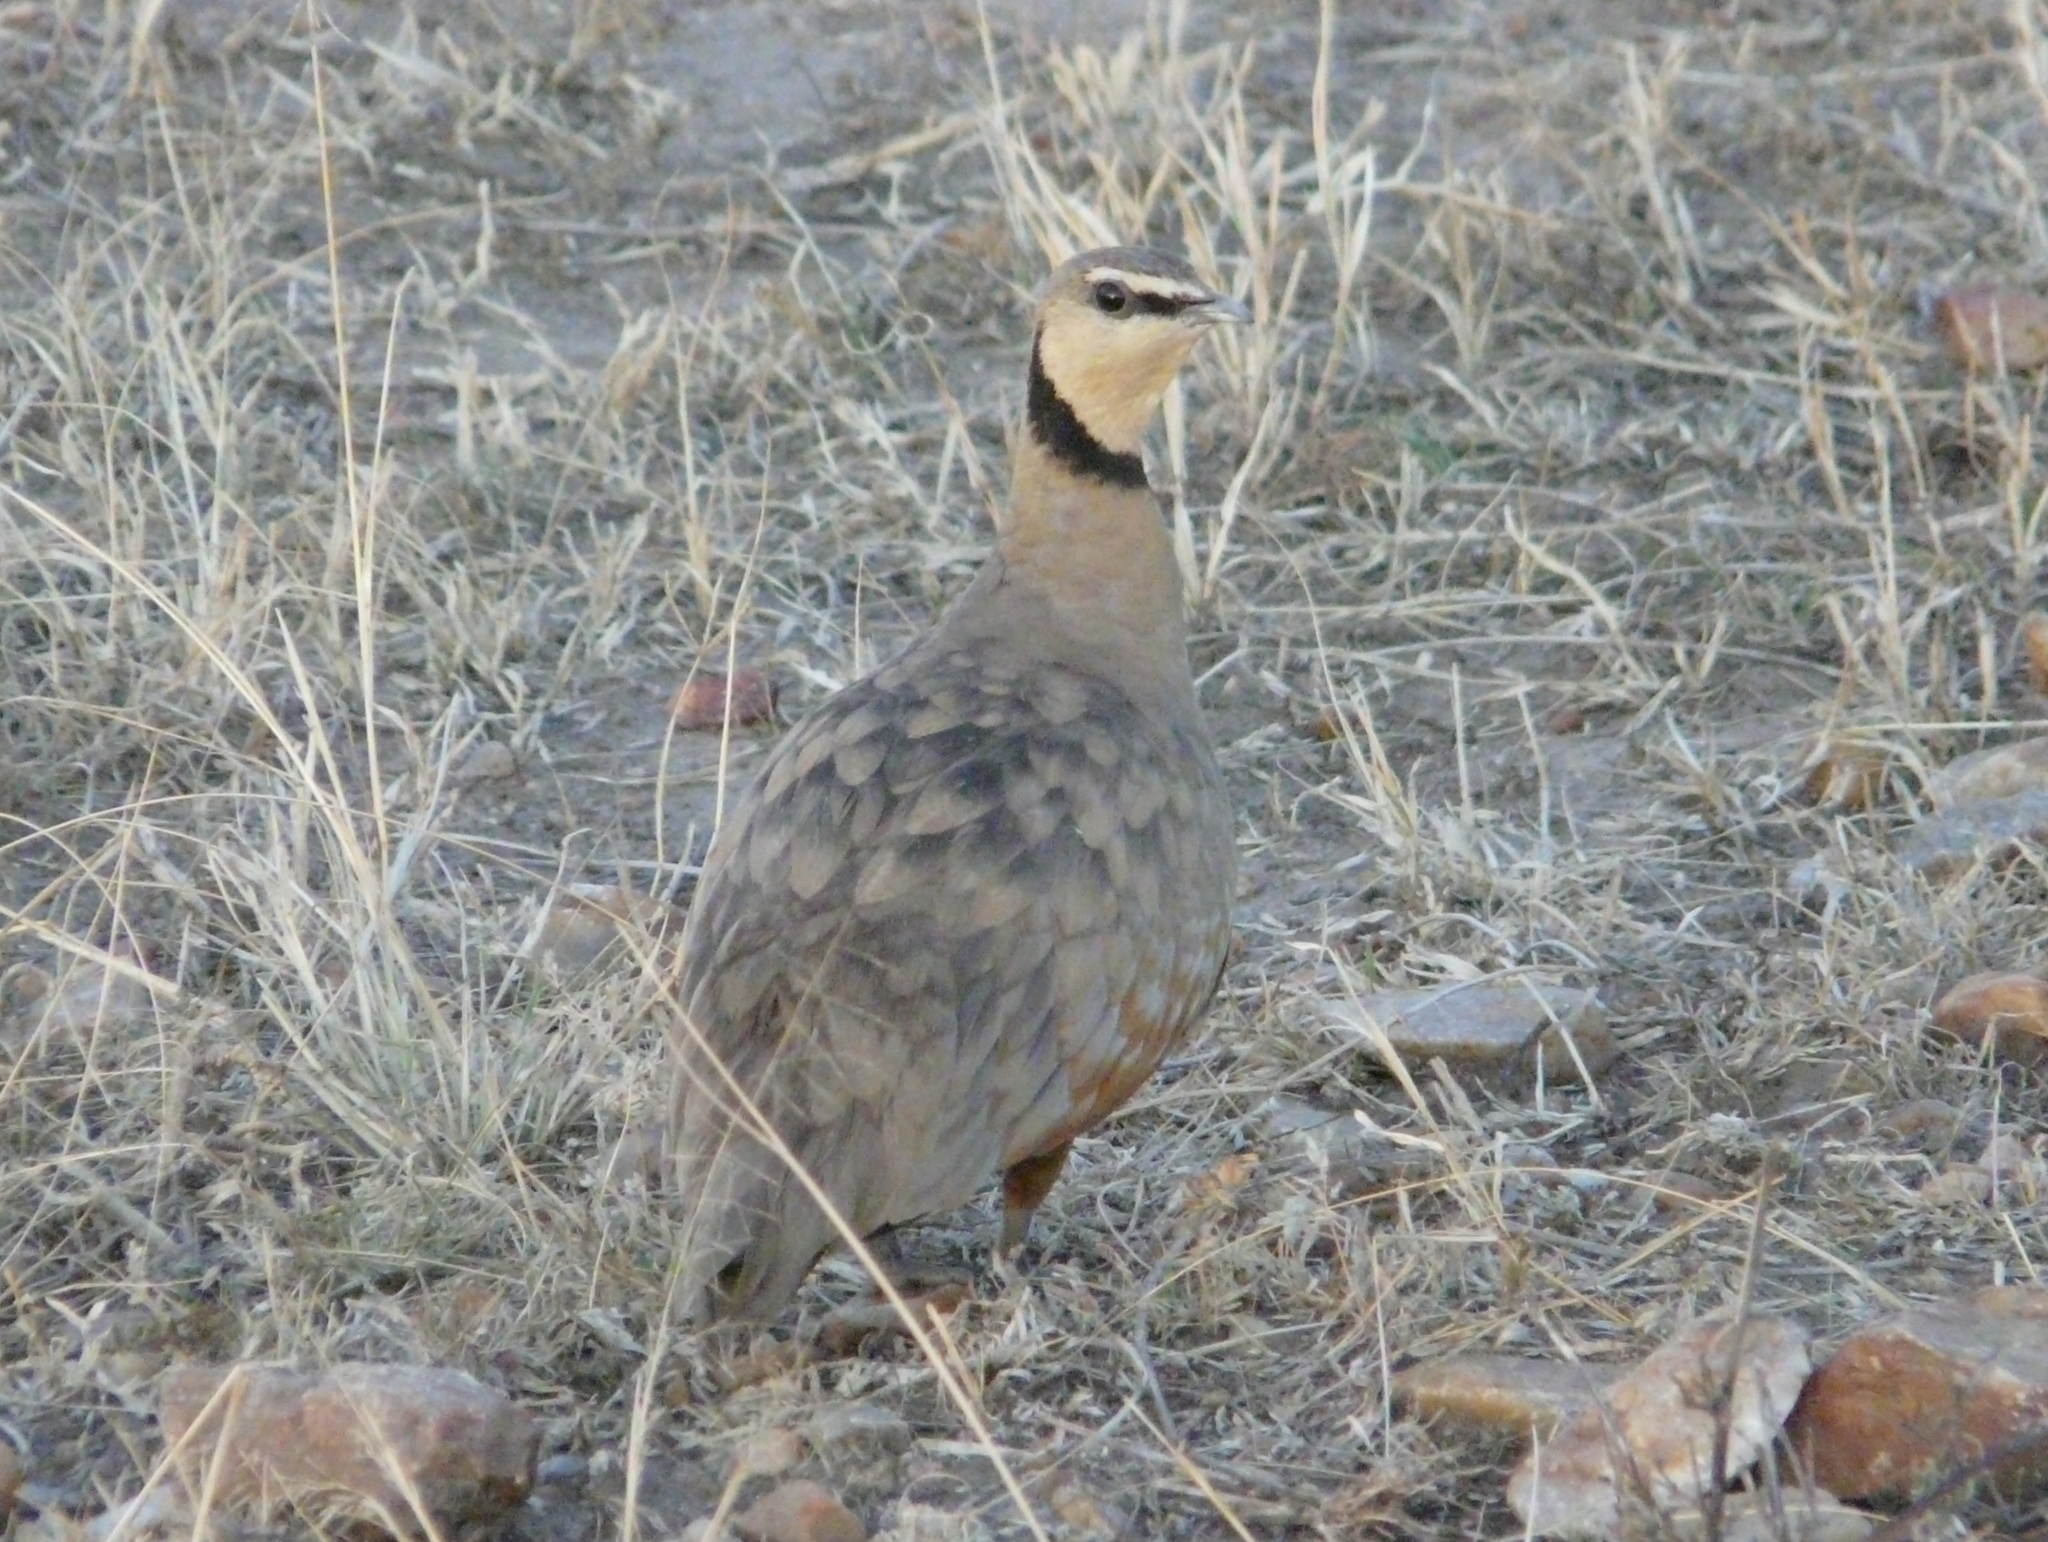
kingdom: Animalia
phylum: Chordata
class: Aves
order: Pteroclidiformes
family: Pteroclididae
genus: Pterocles
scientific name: Pterocles gutturalis
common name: Yellow-throated sandgrouse
